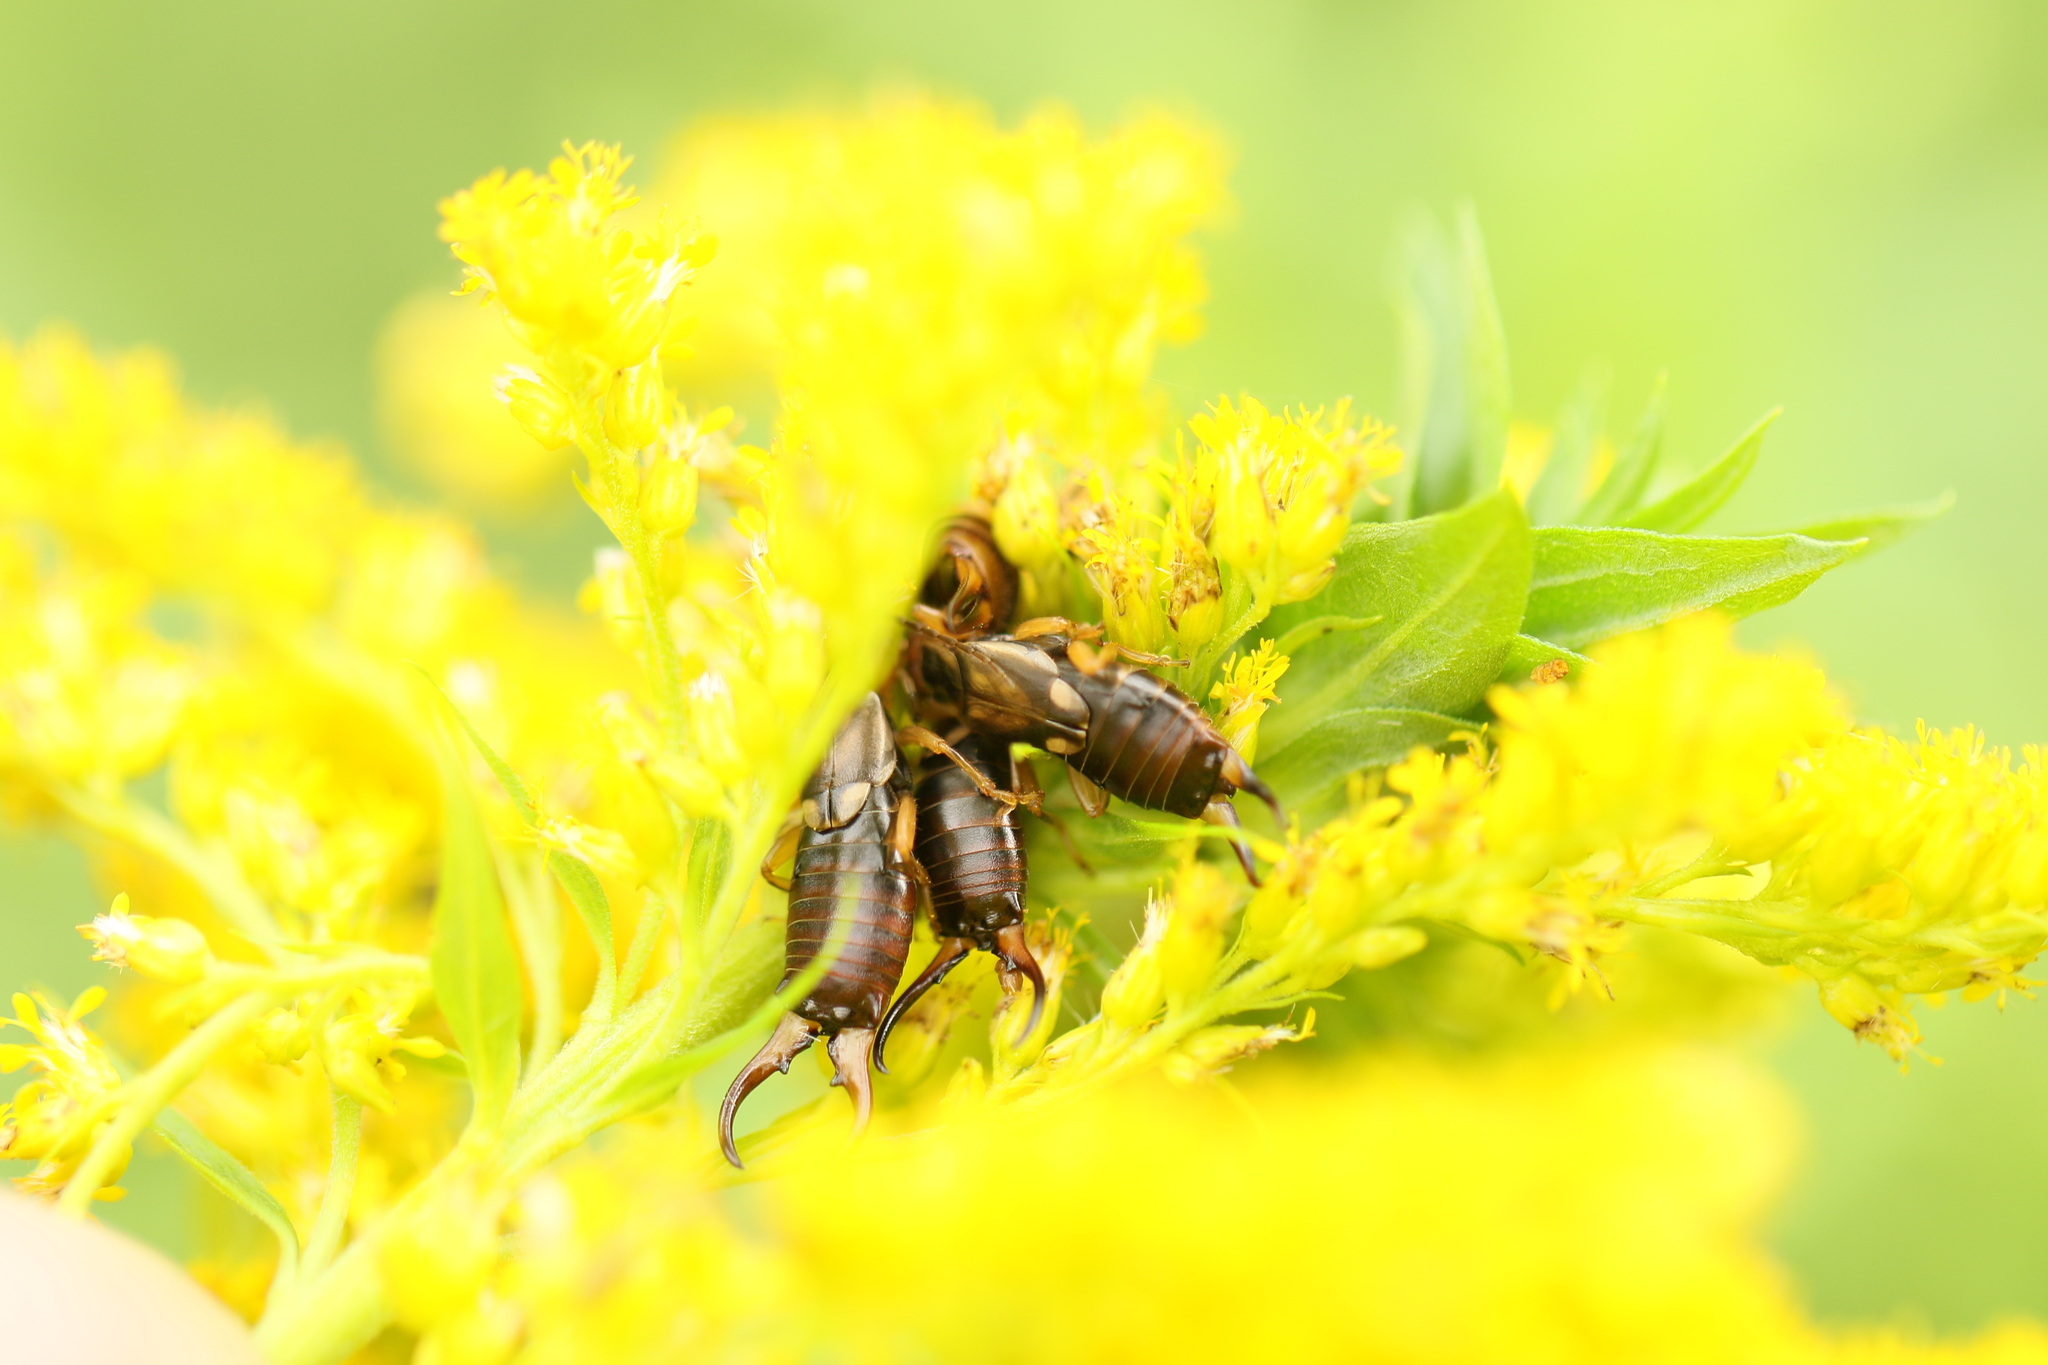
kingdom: Animalia
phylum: Arthropoda
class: Insecta
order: Dermaptera
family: Forficulidae
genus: Forficula
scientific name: Forficula
